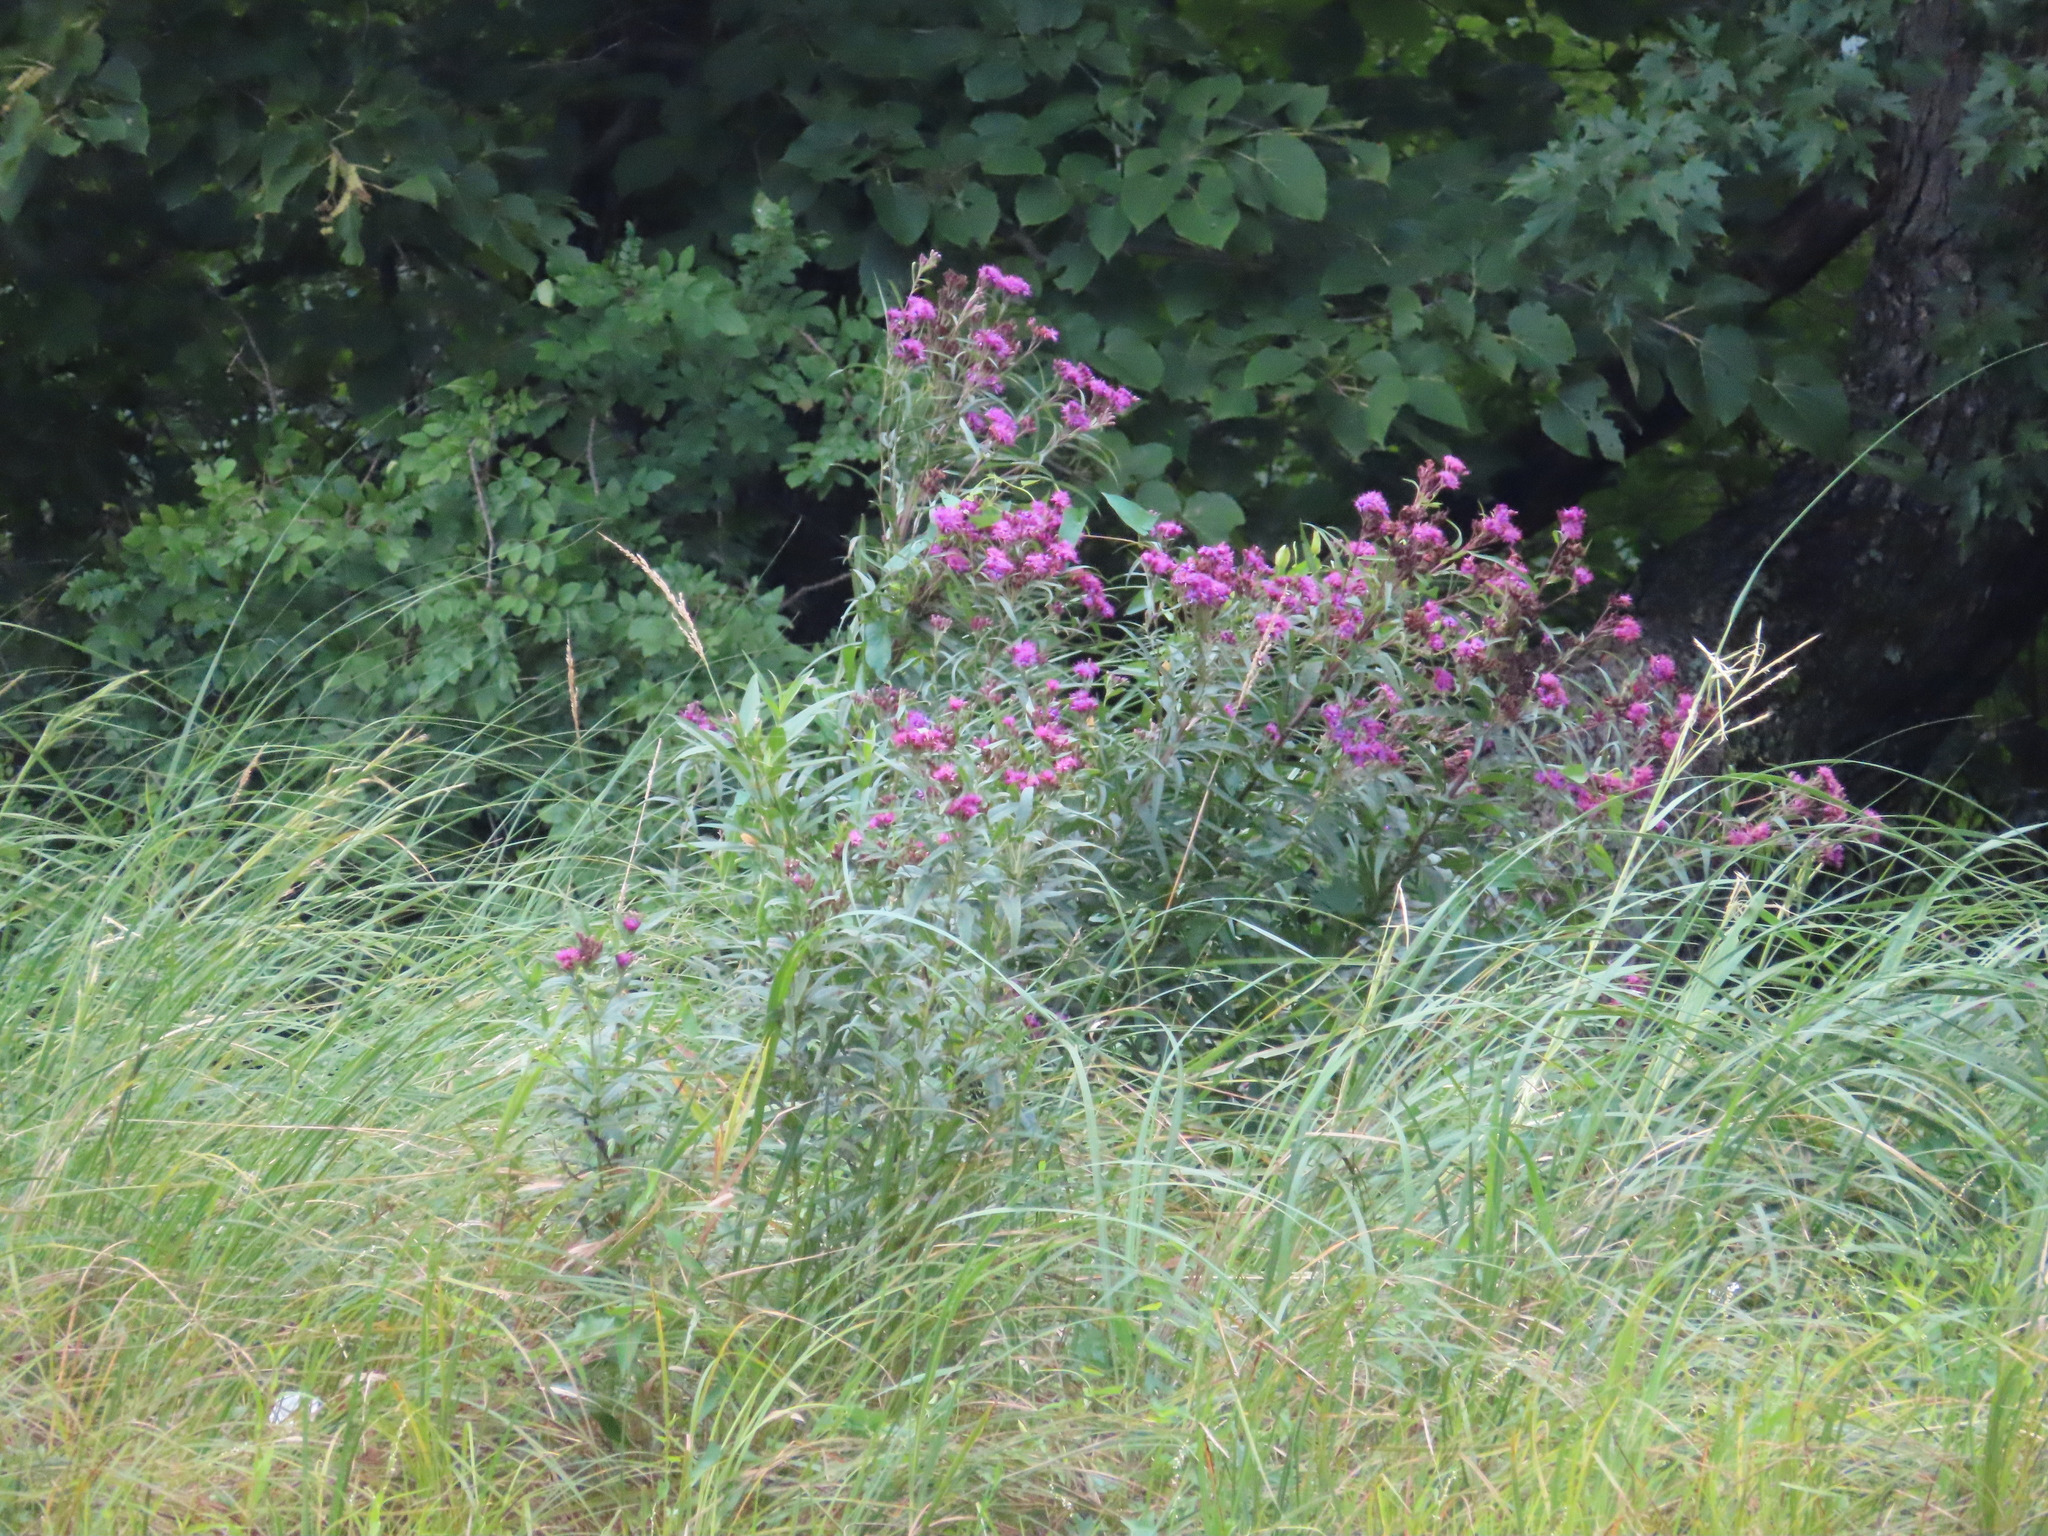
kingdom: Plantae
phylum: Tracheophyta
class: Magnoliopsida
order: Asterales
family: Asteraceae
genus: Vernonia
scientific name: Vernonia fasciculata
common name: Fascicled ironweed
